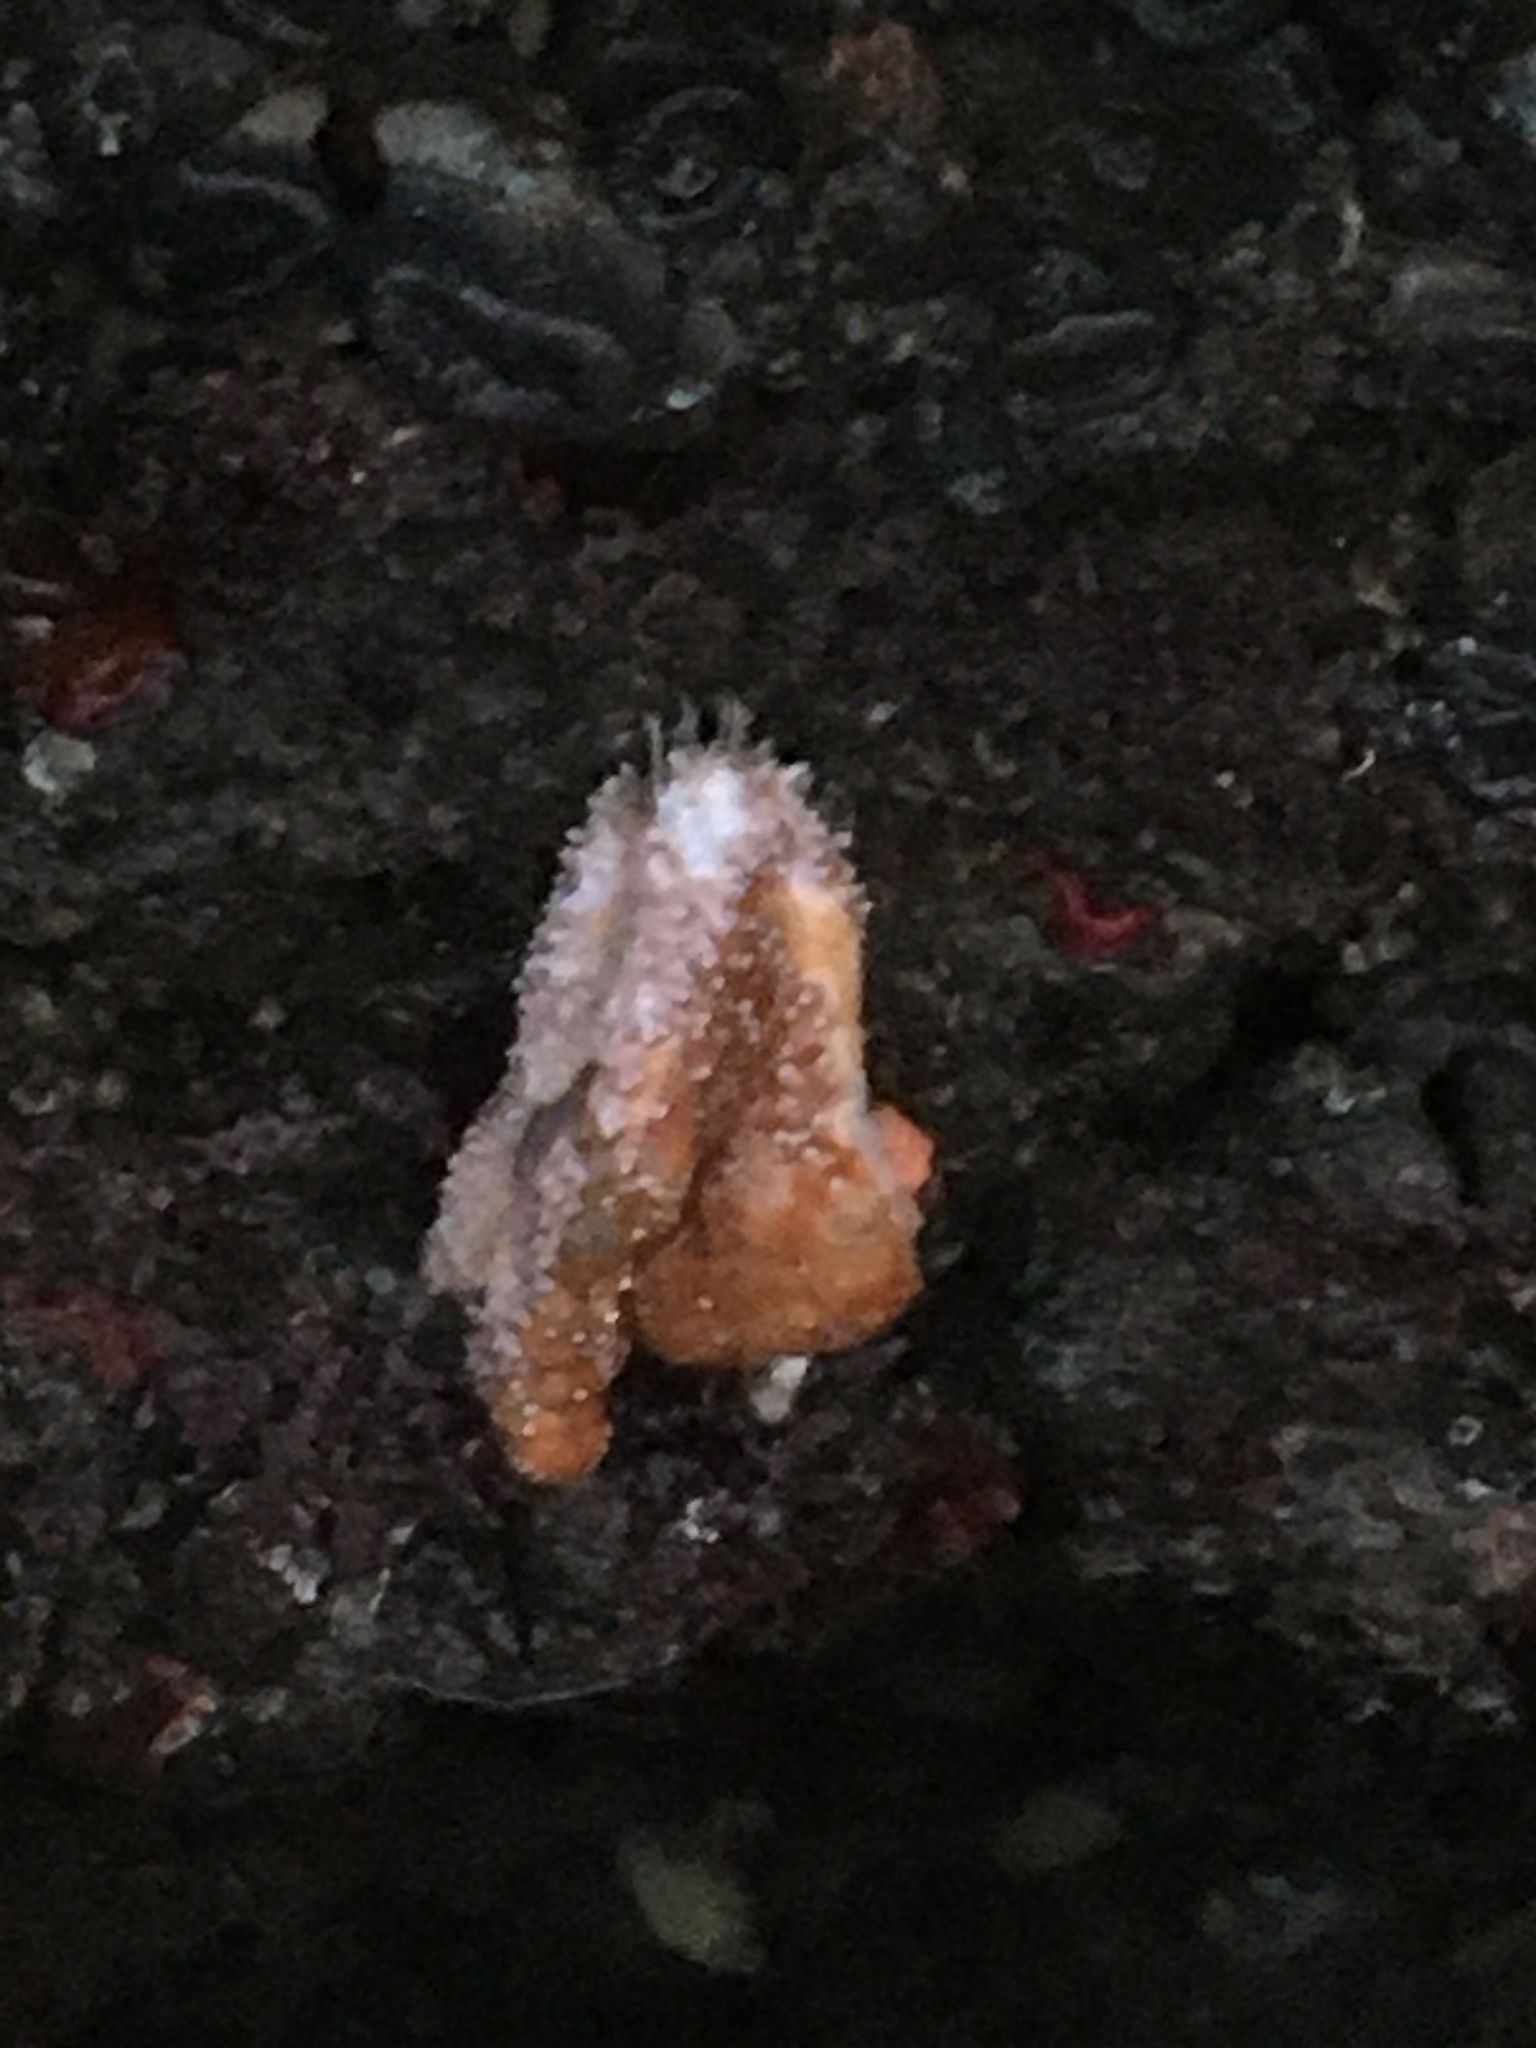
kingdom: Animalia
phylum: Echinodermata
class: Asteroidea
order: Forcipulatida
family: Asteriidae
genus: Pisaster
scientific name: Pisaster ochraceus
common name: Ochre stars
